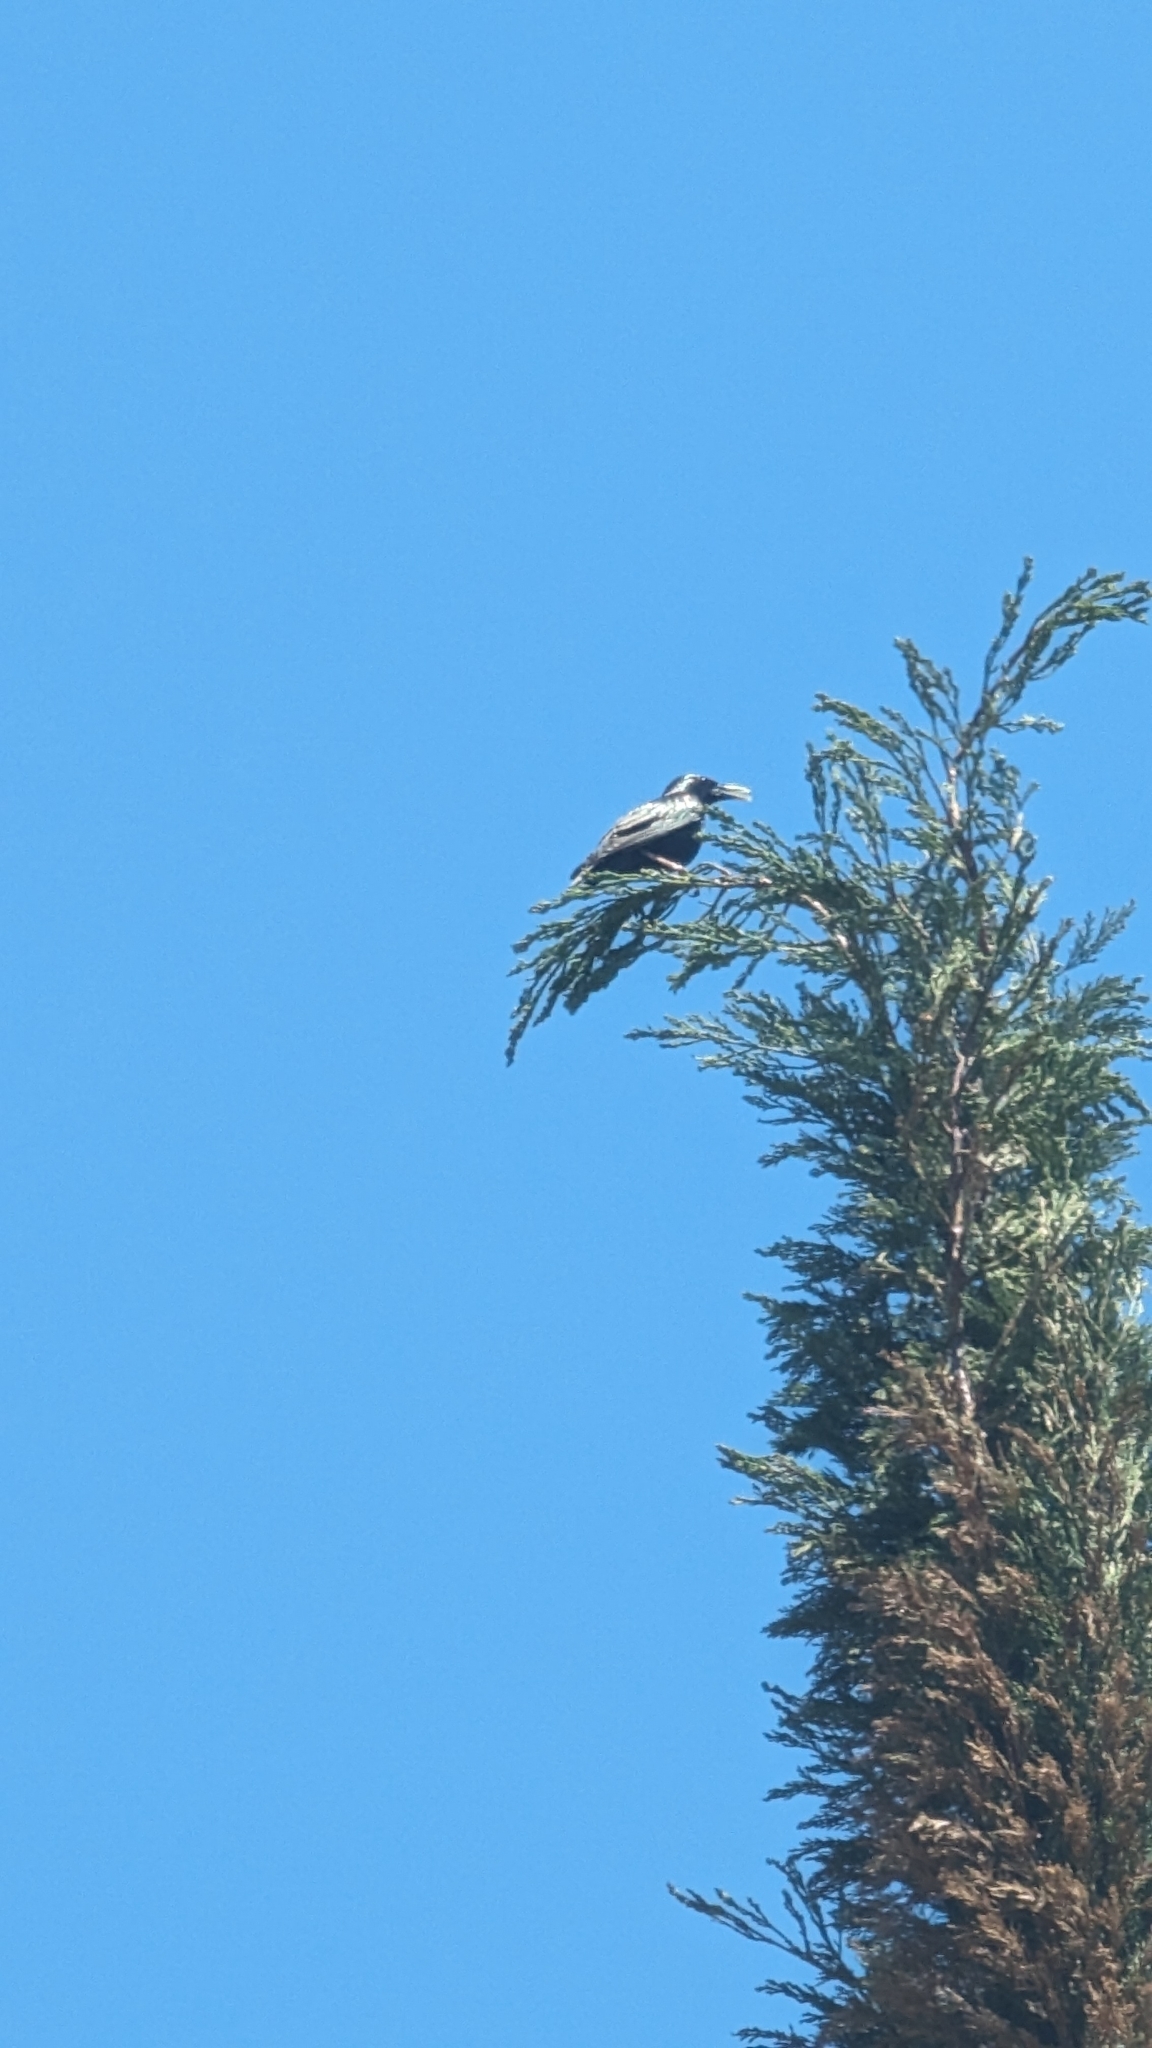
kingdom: Animalia
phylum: Chordata
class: Aves
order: Passeriformes
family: Sturnidae
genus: Sturnus
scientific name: Sturnus unicolor
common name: Spotless starling
